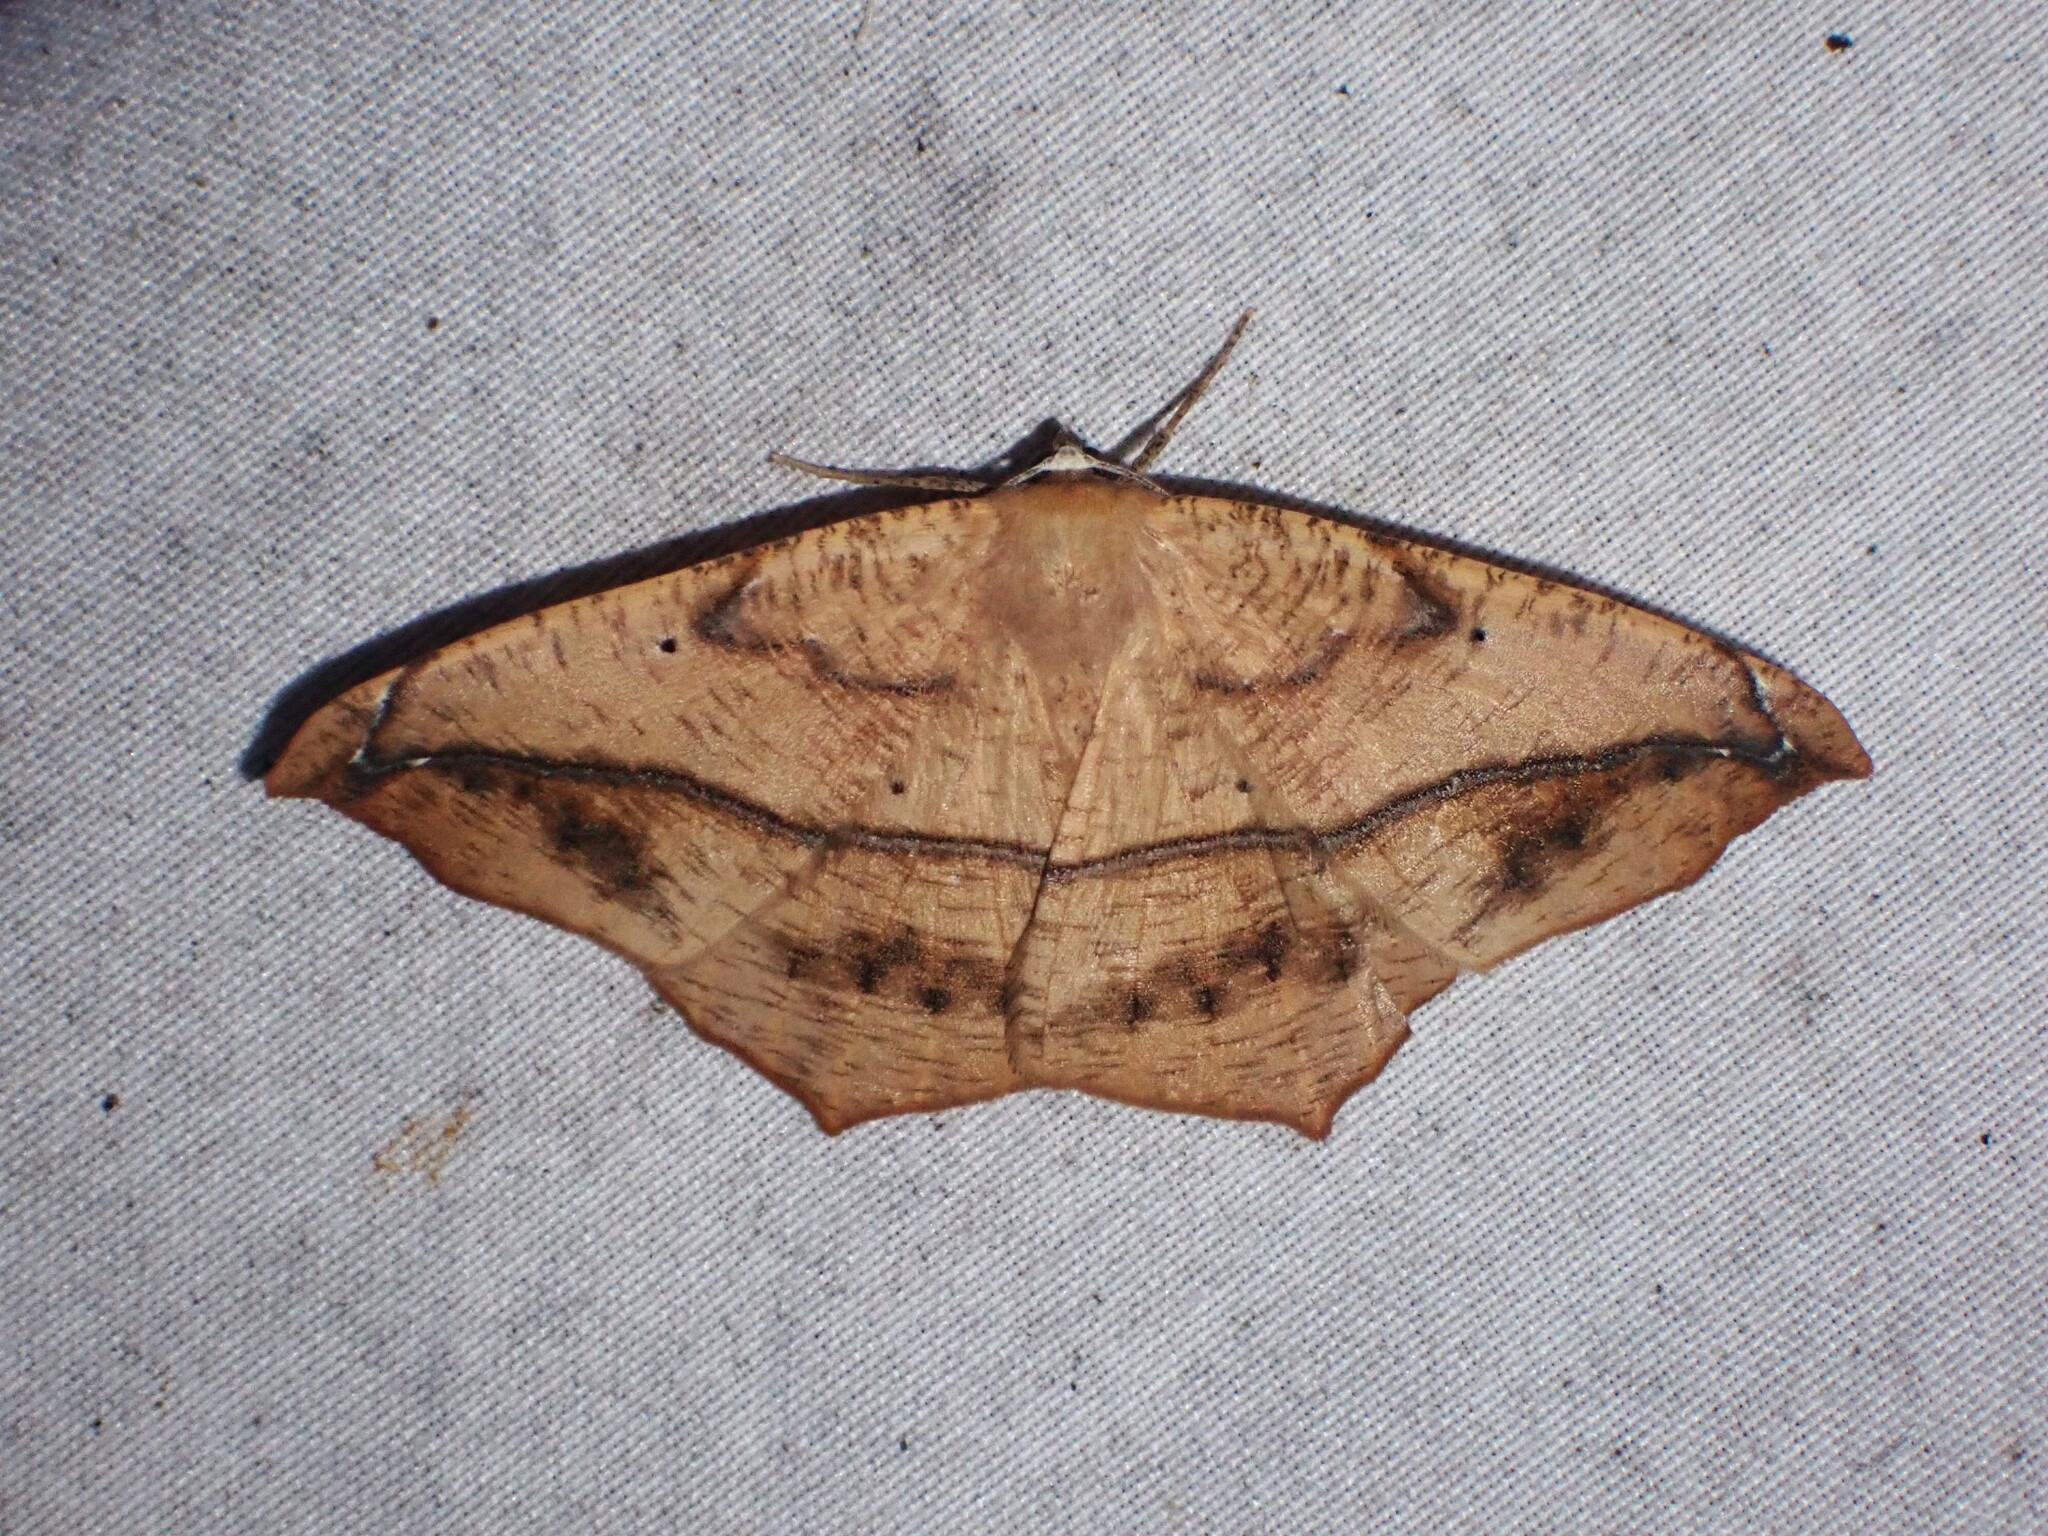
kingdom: Animalia
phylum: Arthropoda
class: Insecta
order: Lepidoptera
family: Geometridae
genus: Prochoerodes
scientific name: Prochoerodes lineola
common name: Large maple spanworm
